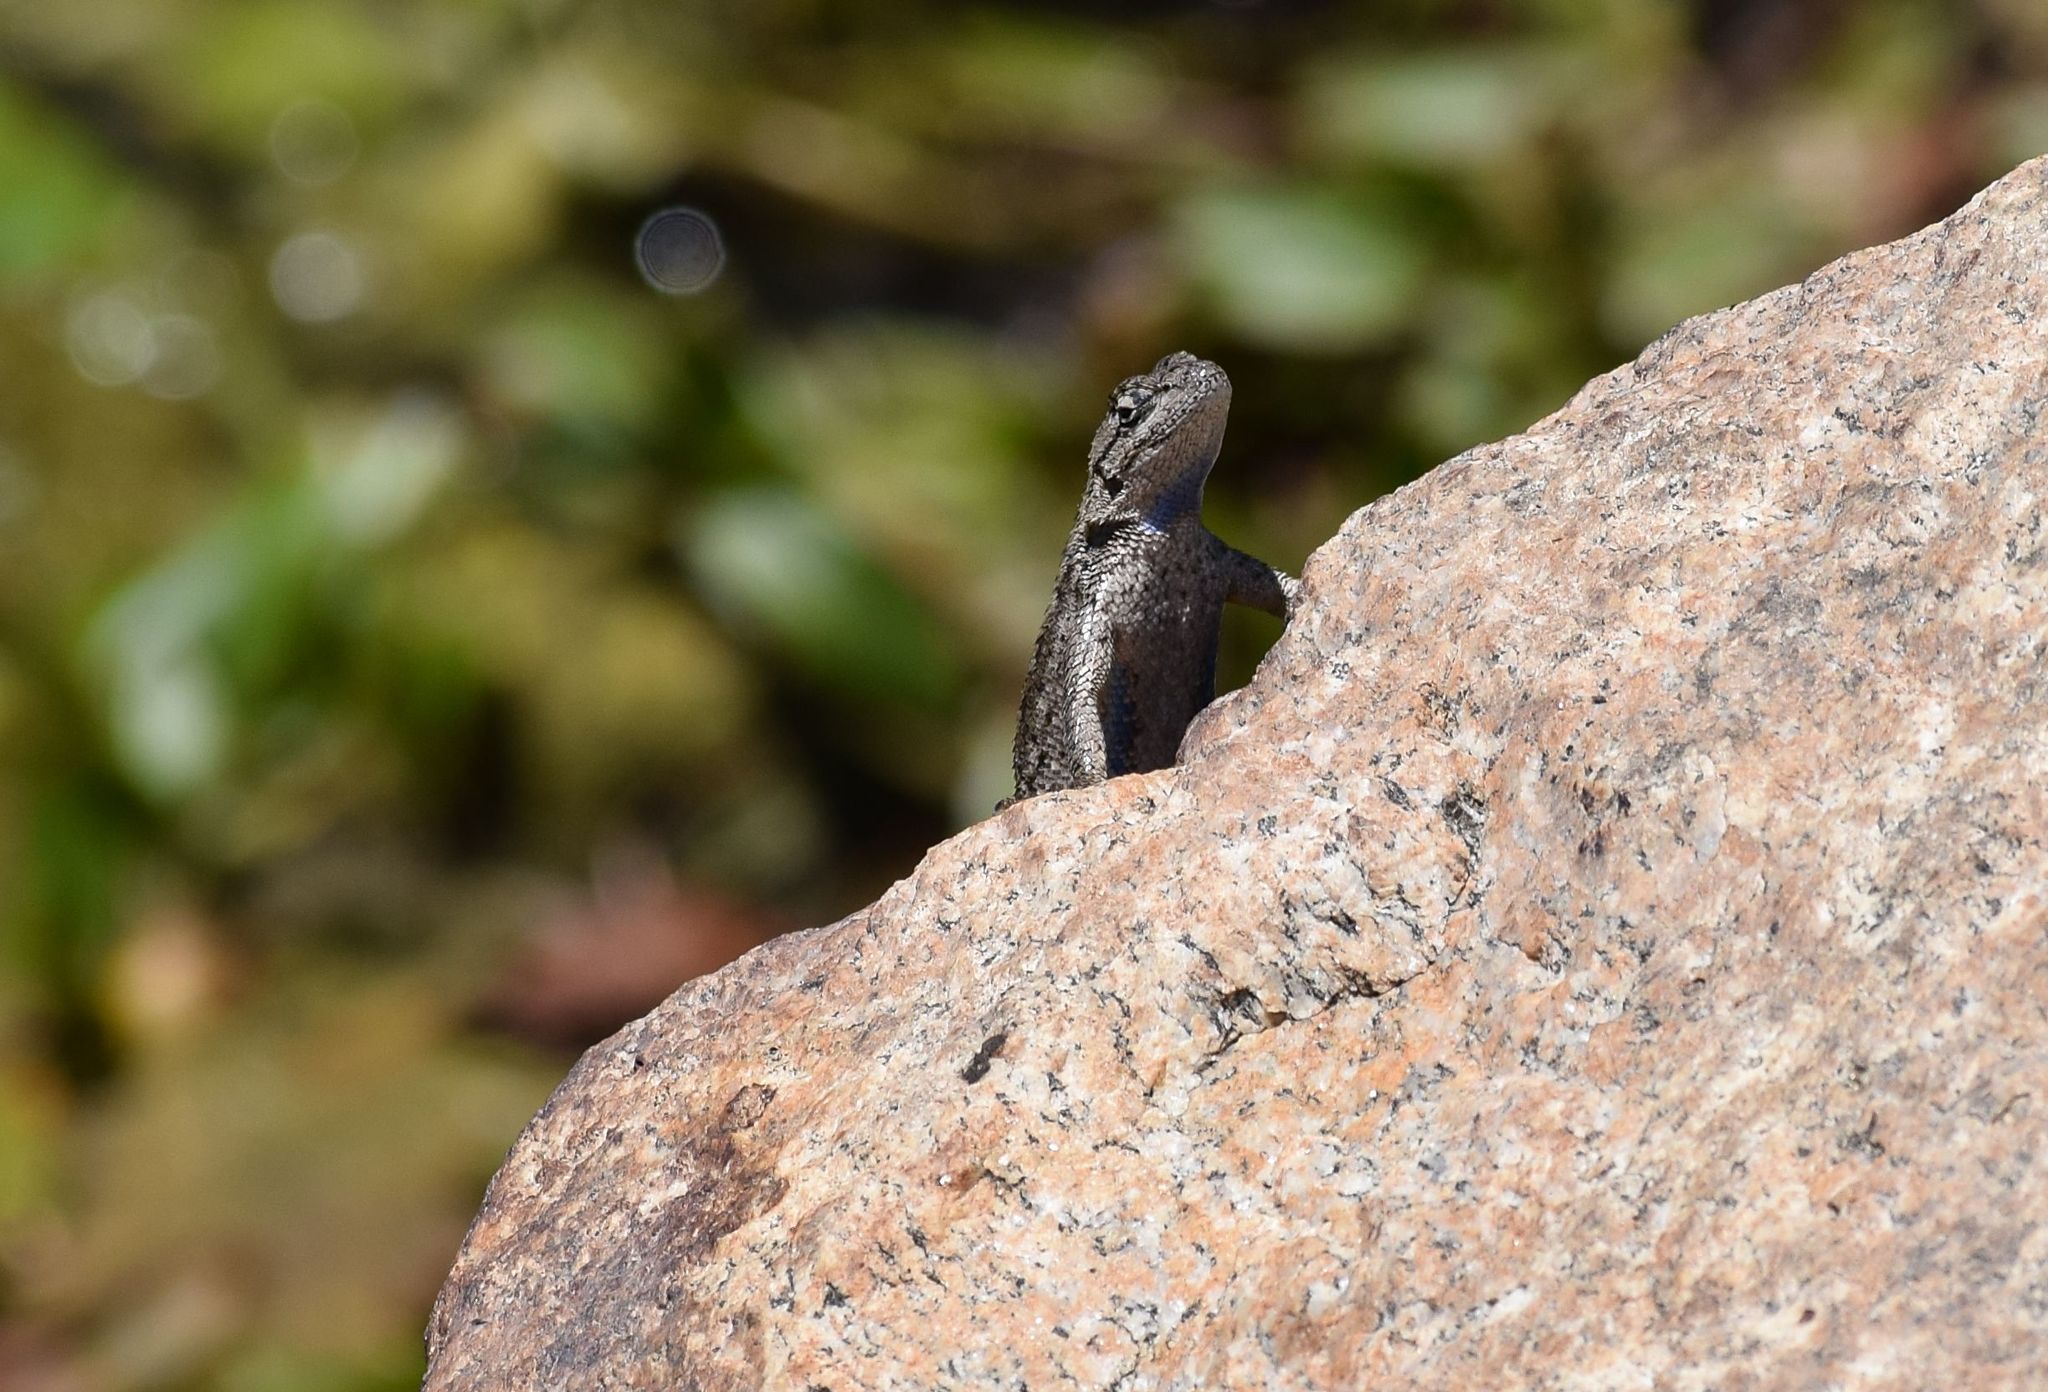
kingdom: Animalia
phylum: Chordata
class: Squamata
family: Phrynosomatidae
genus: Sceloporus
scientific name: Sceloporus occidentalis
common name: Western fence lizard
